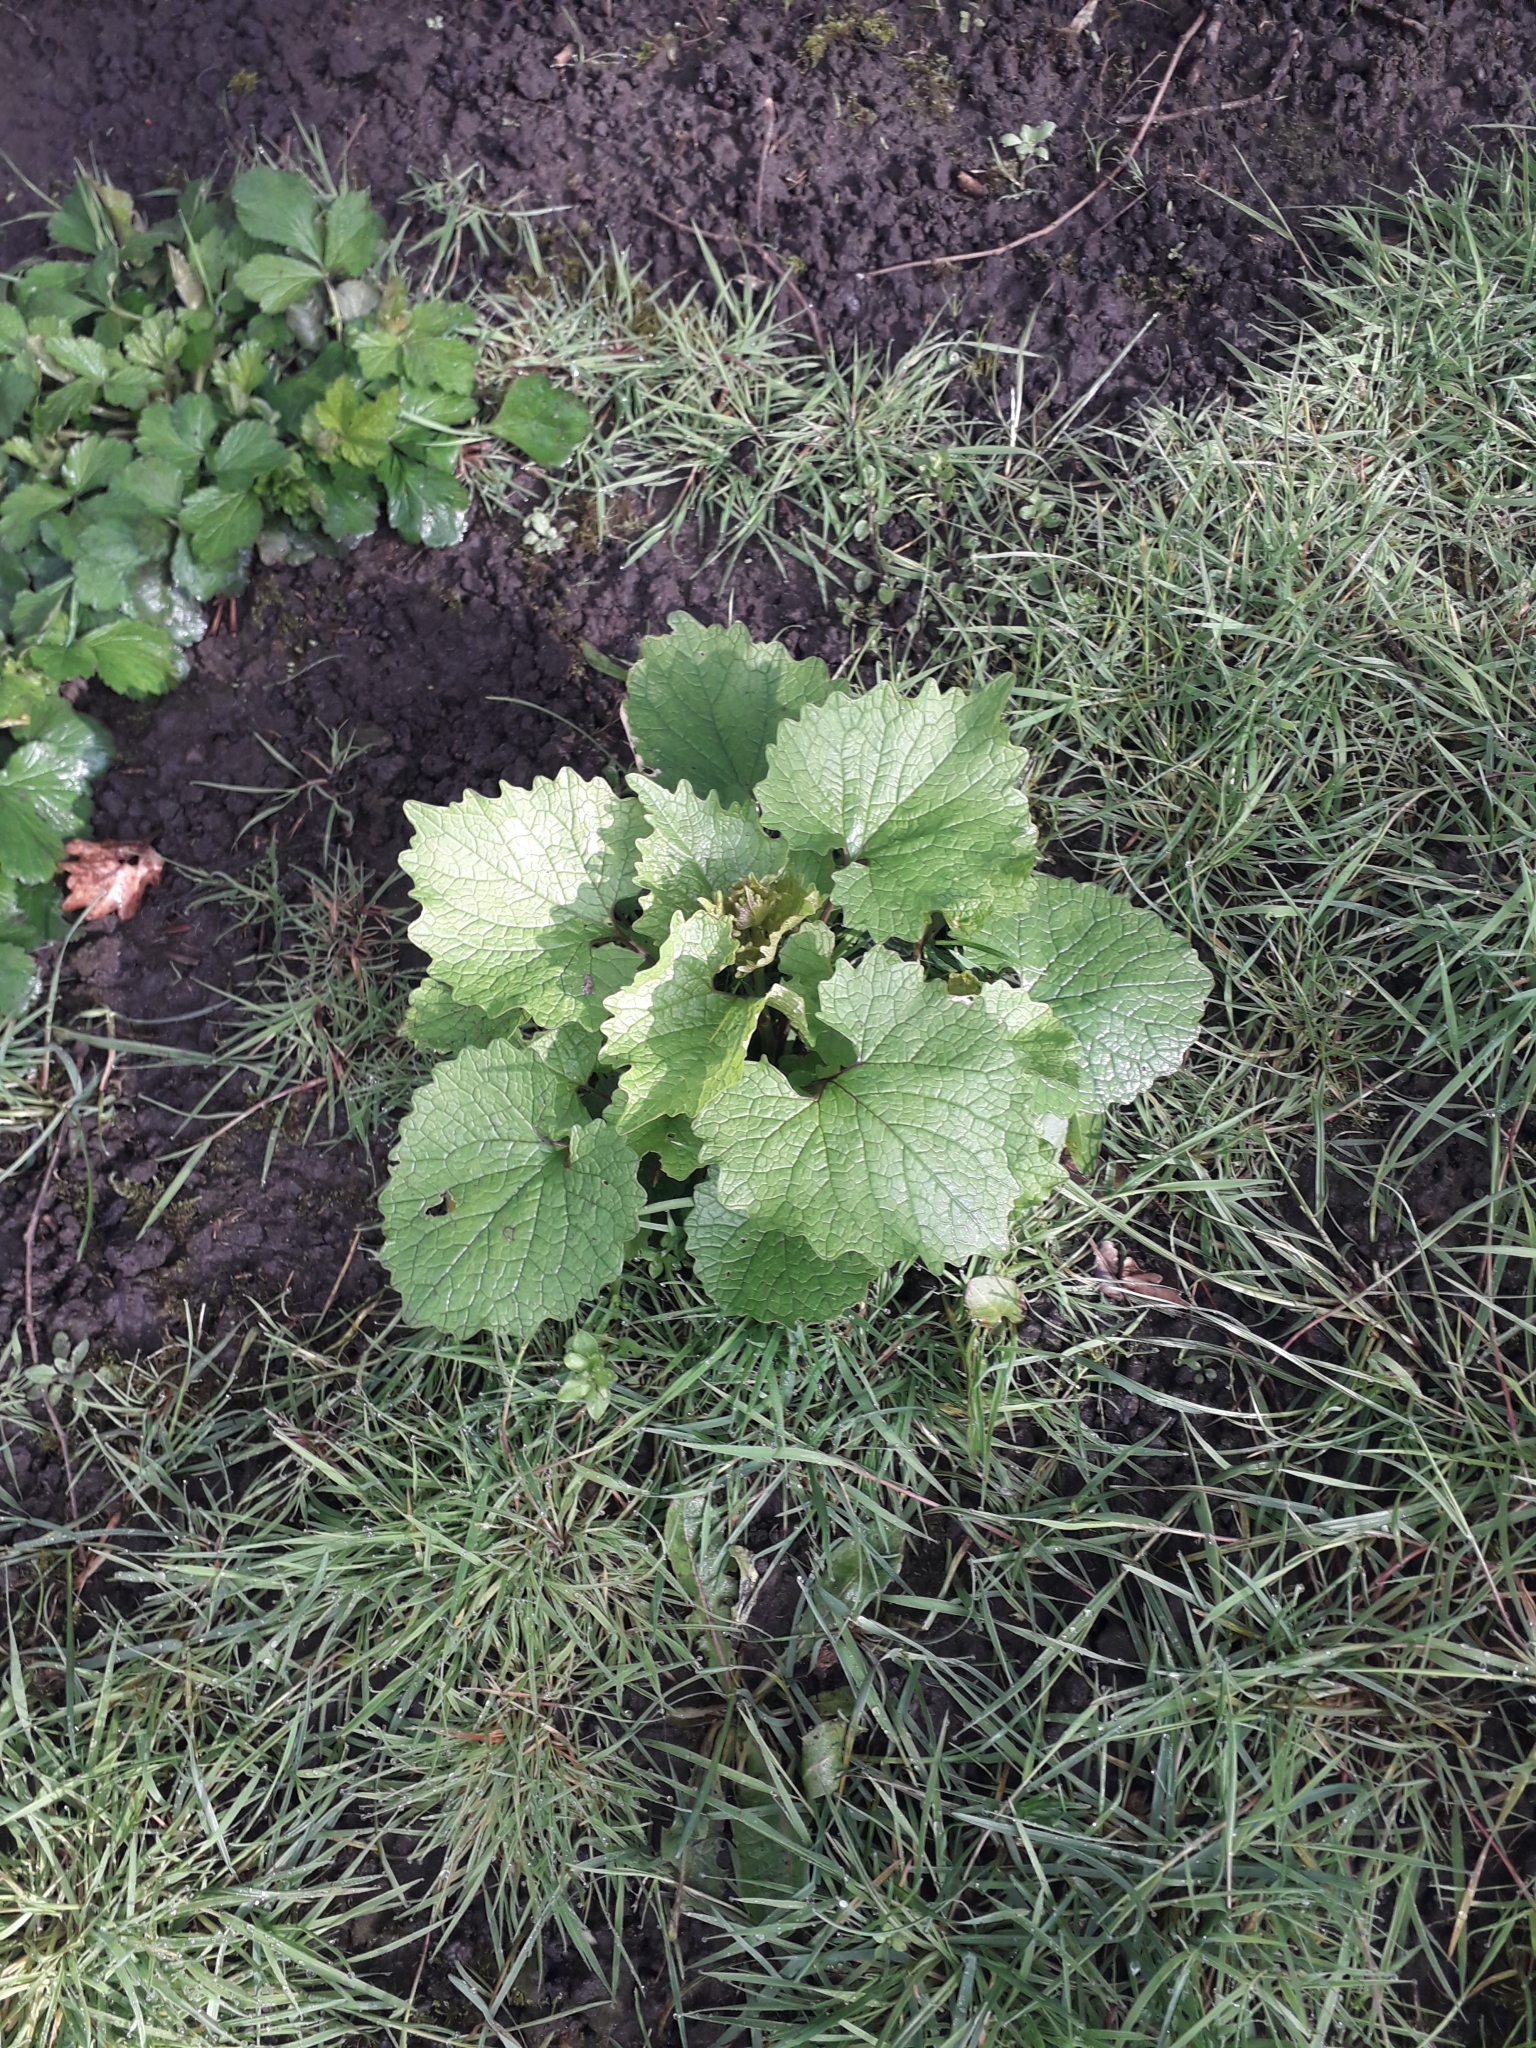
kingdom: Plantae
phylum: Tracheophyta
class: Magnoliopsida
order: Brassicales
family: Brassicaceae
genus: Alliaria
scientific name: Alliaria petiolata
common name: Garlic mustard
